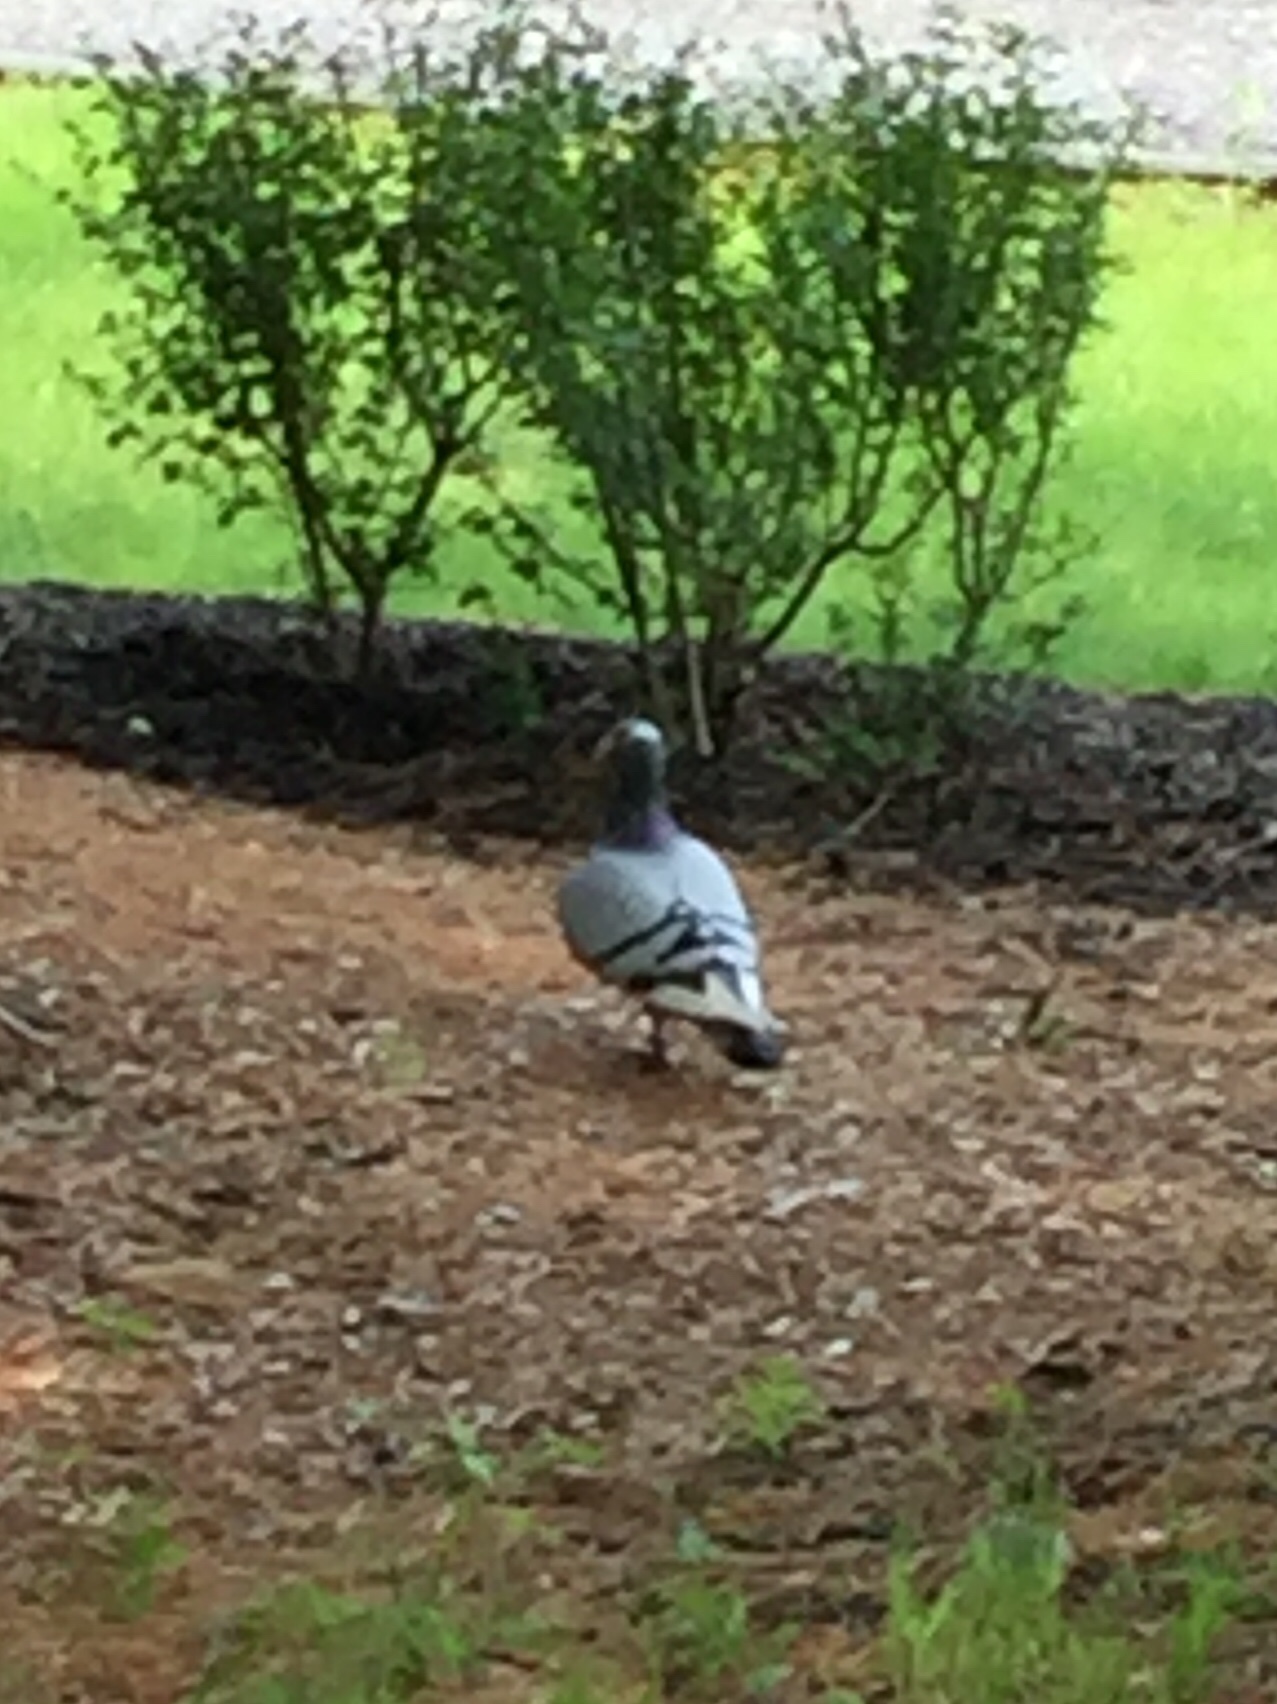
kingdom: Animalia
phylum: Chordata
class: Aves
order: Columbiformes
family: Columbidae
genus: Columba
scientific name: Columba livia
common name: Rock pigeon
